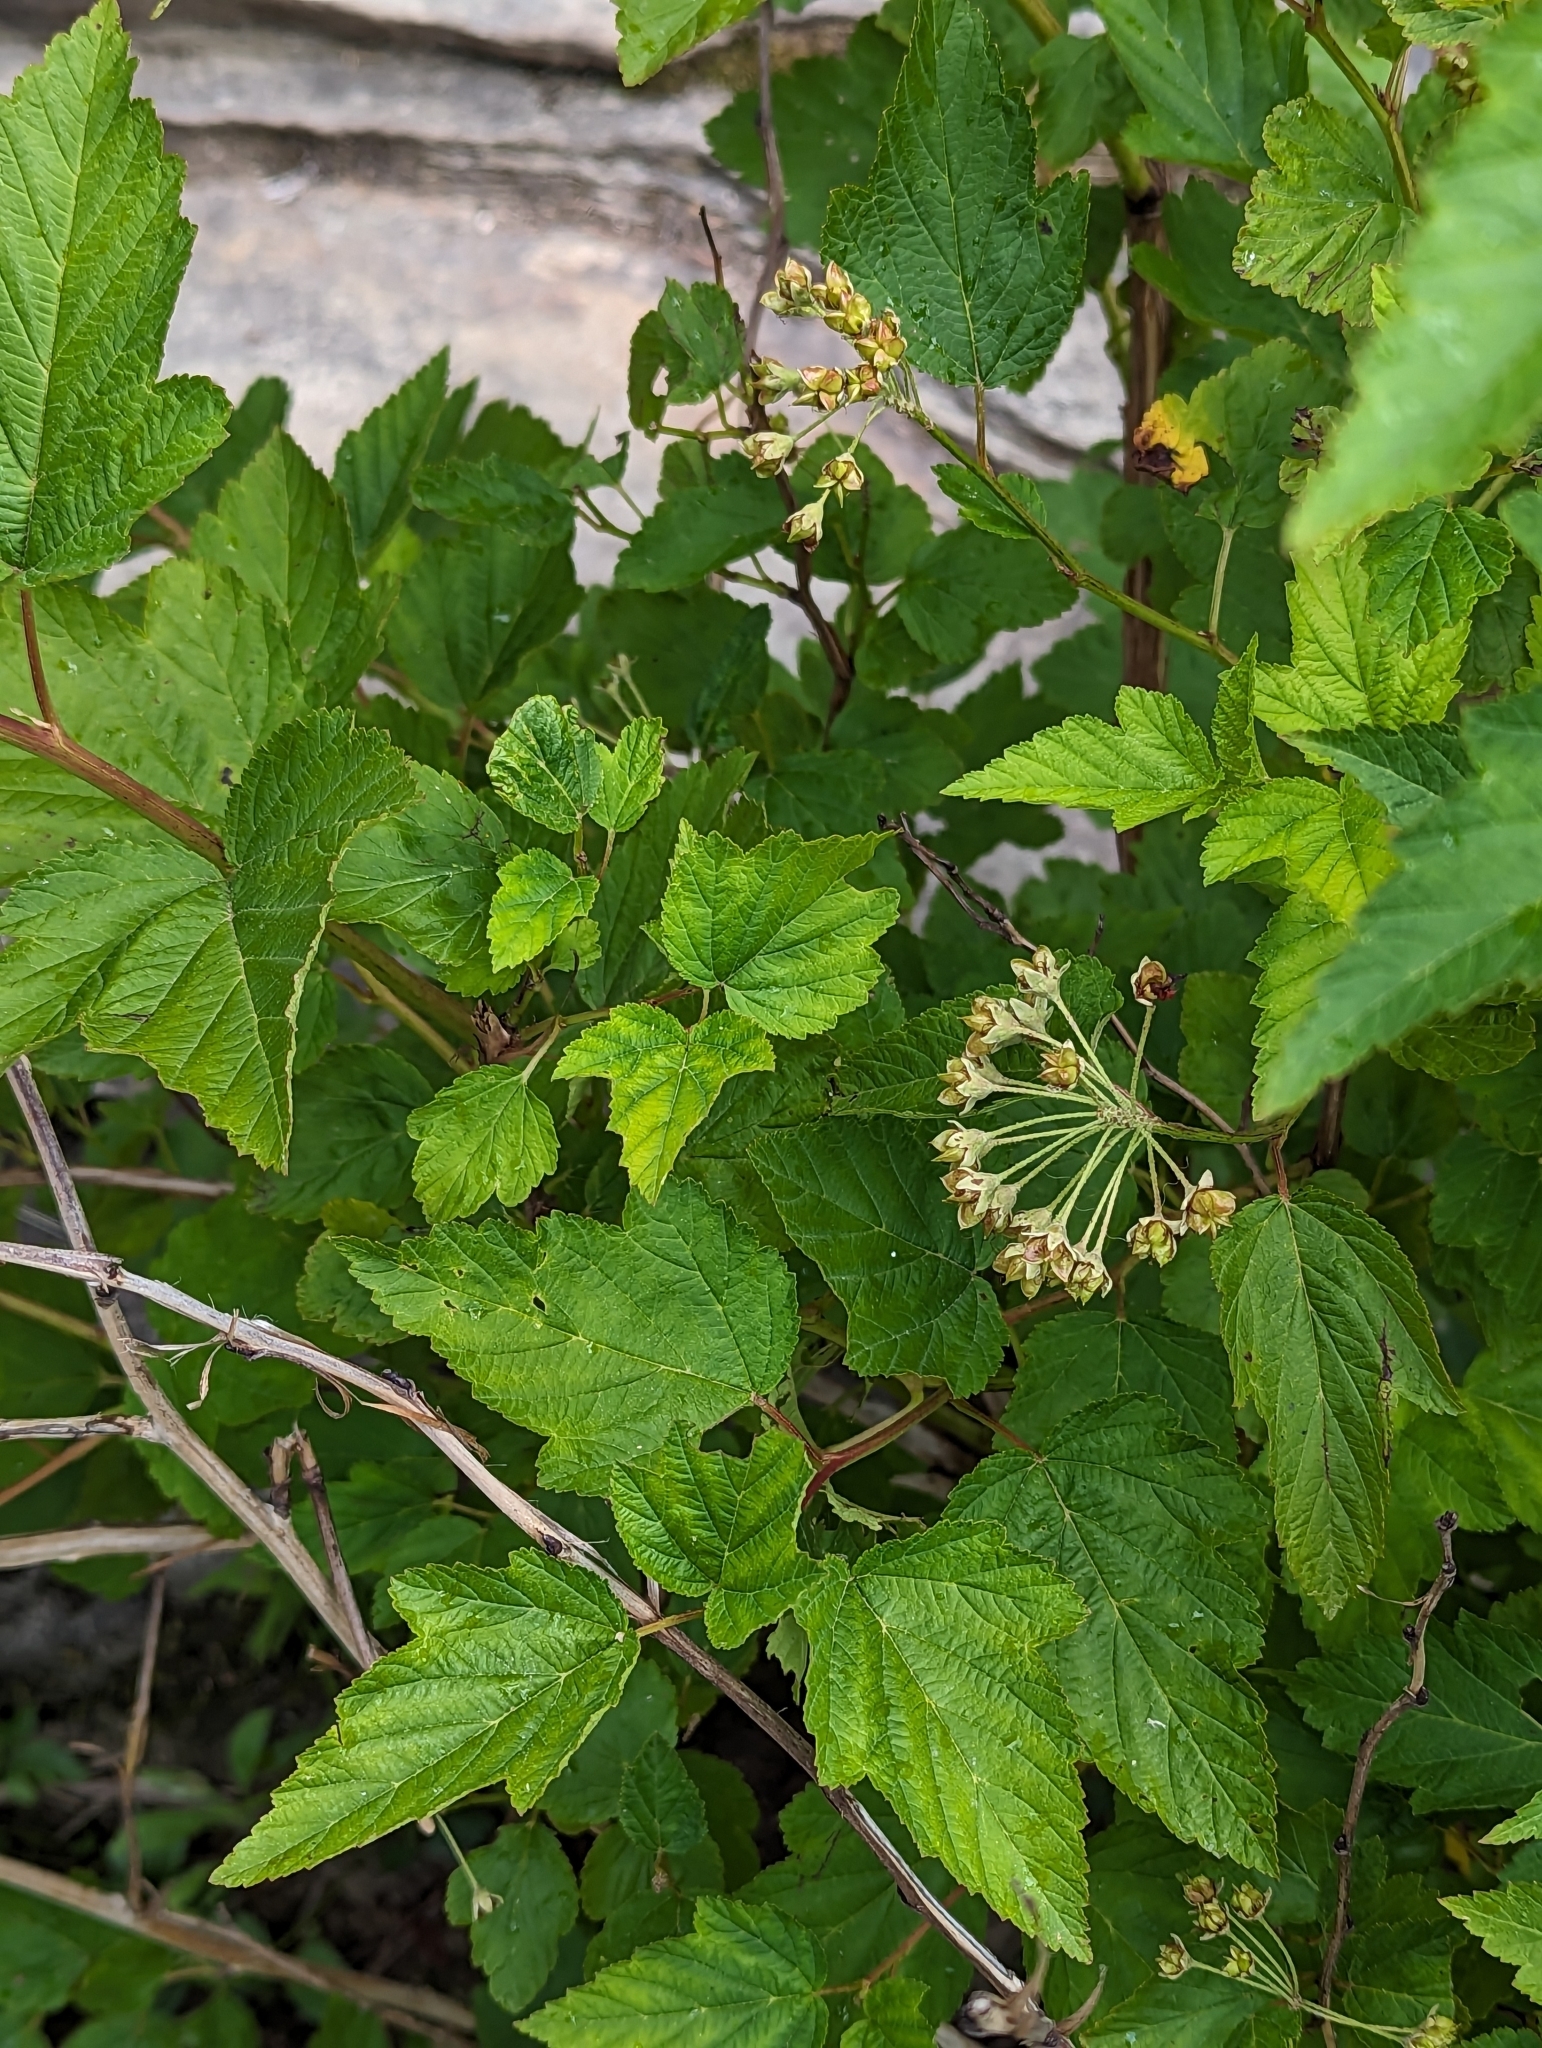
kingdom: Plantae
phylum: Tracheophyta
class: Magnoliopsida
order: Rosales
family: Rosaceae
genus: Physocarpus
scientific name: Physocarpus opulifolius
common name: Ninebark
